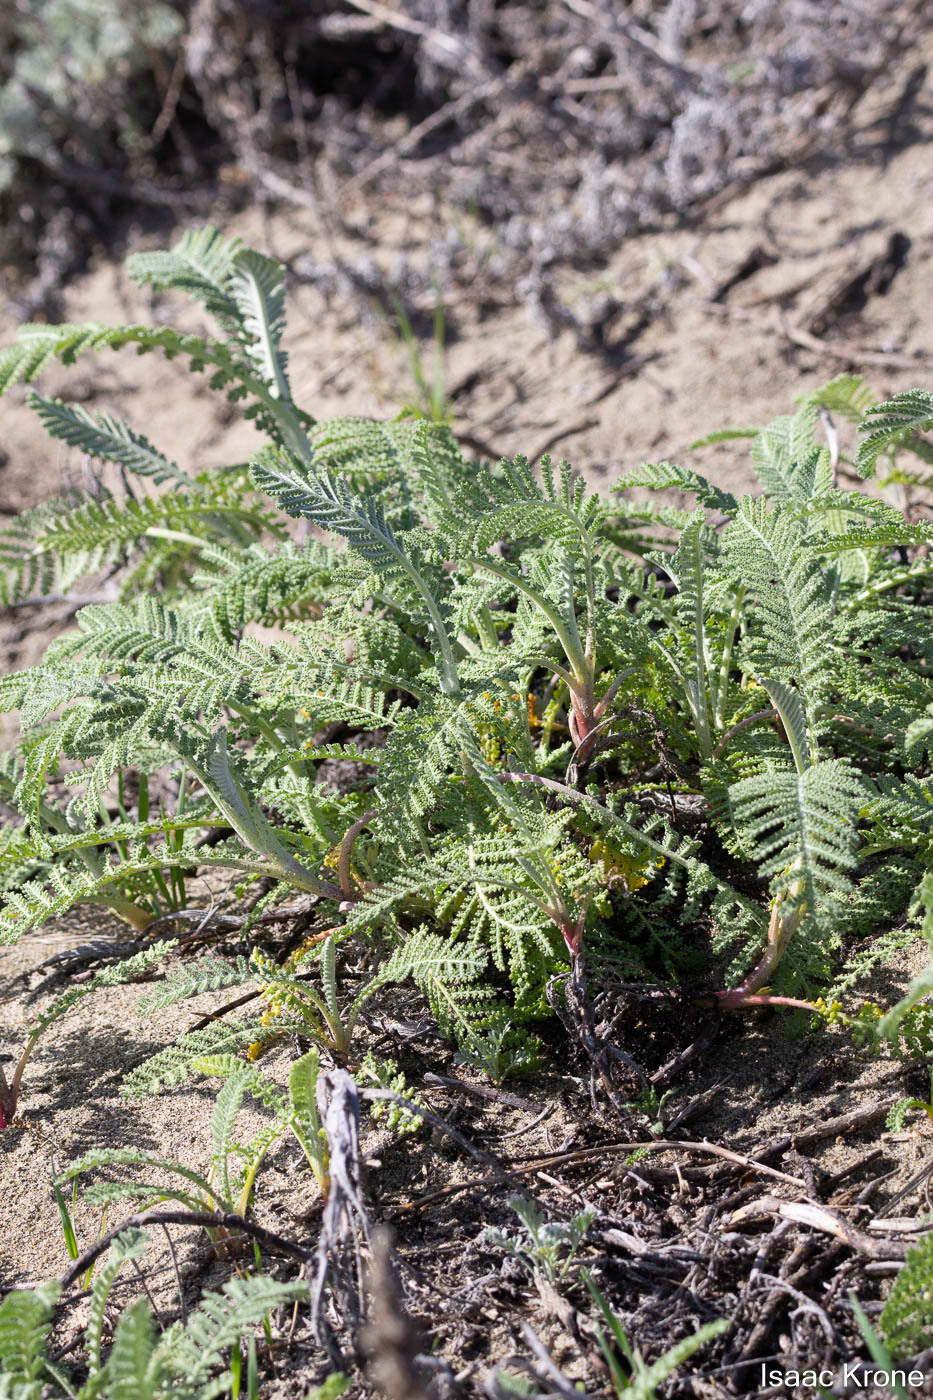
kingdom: Plantae
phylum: Tracheophyta
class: Magnoliopsida
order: Asterales
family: Asteraceae
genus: Tanacetum
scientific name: Tanacetum bipinnatum
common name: Dwarf tansy
